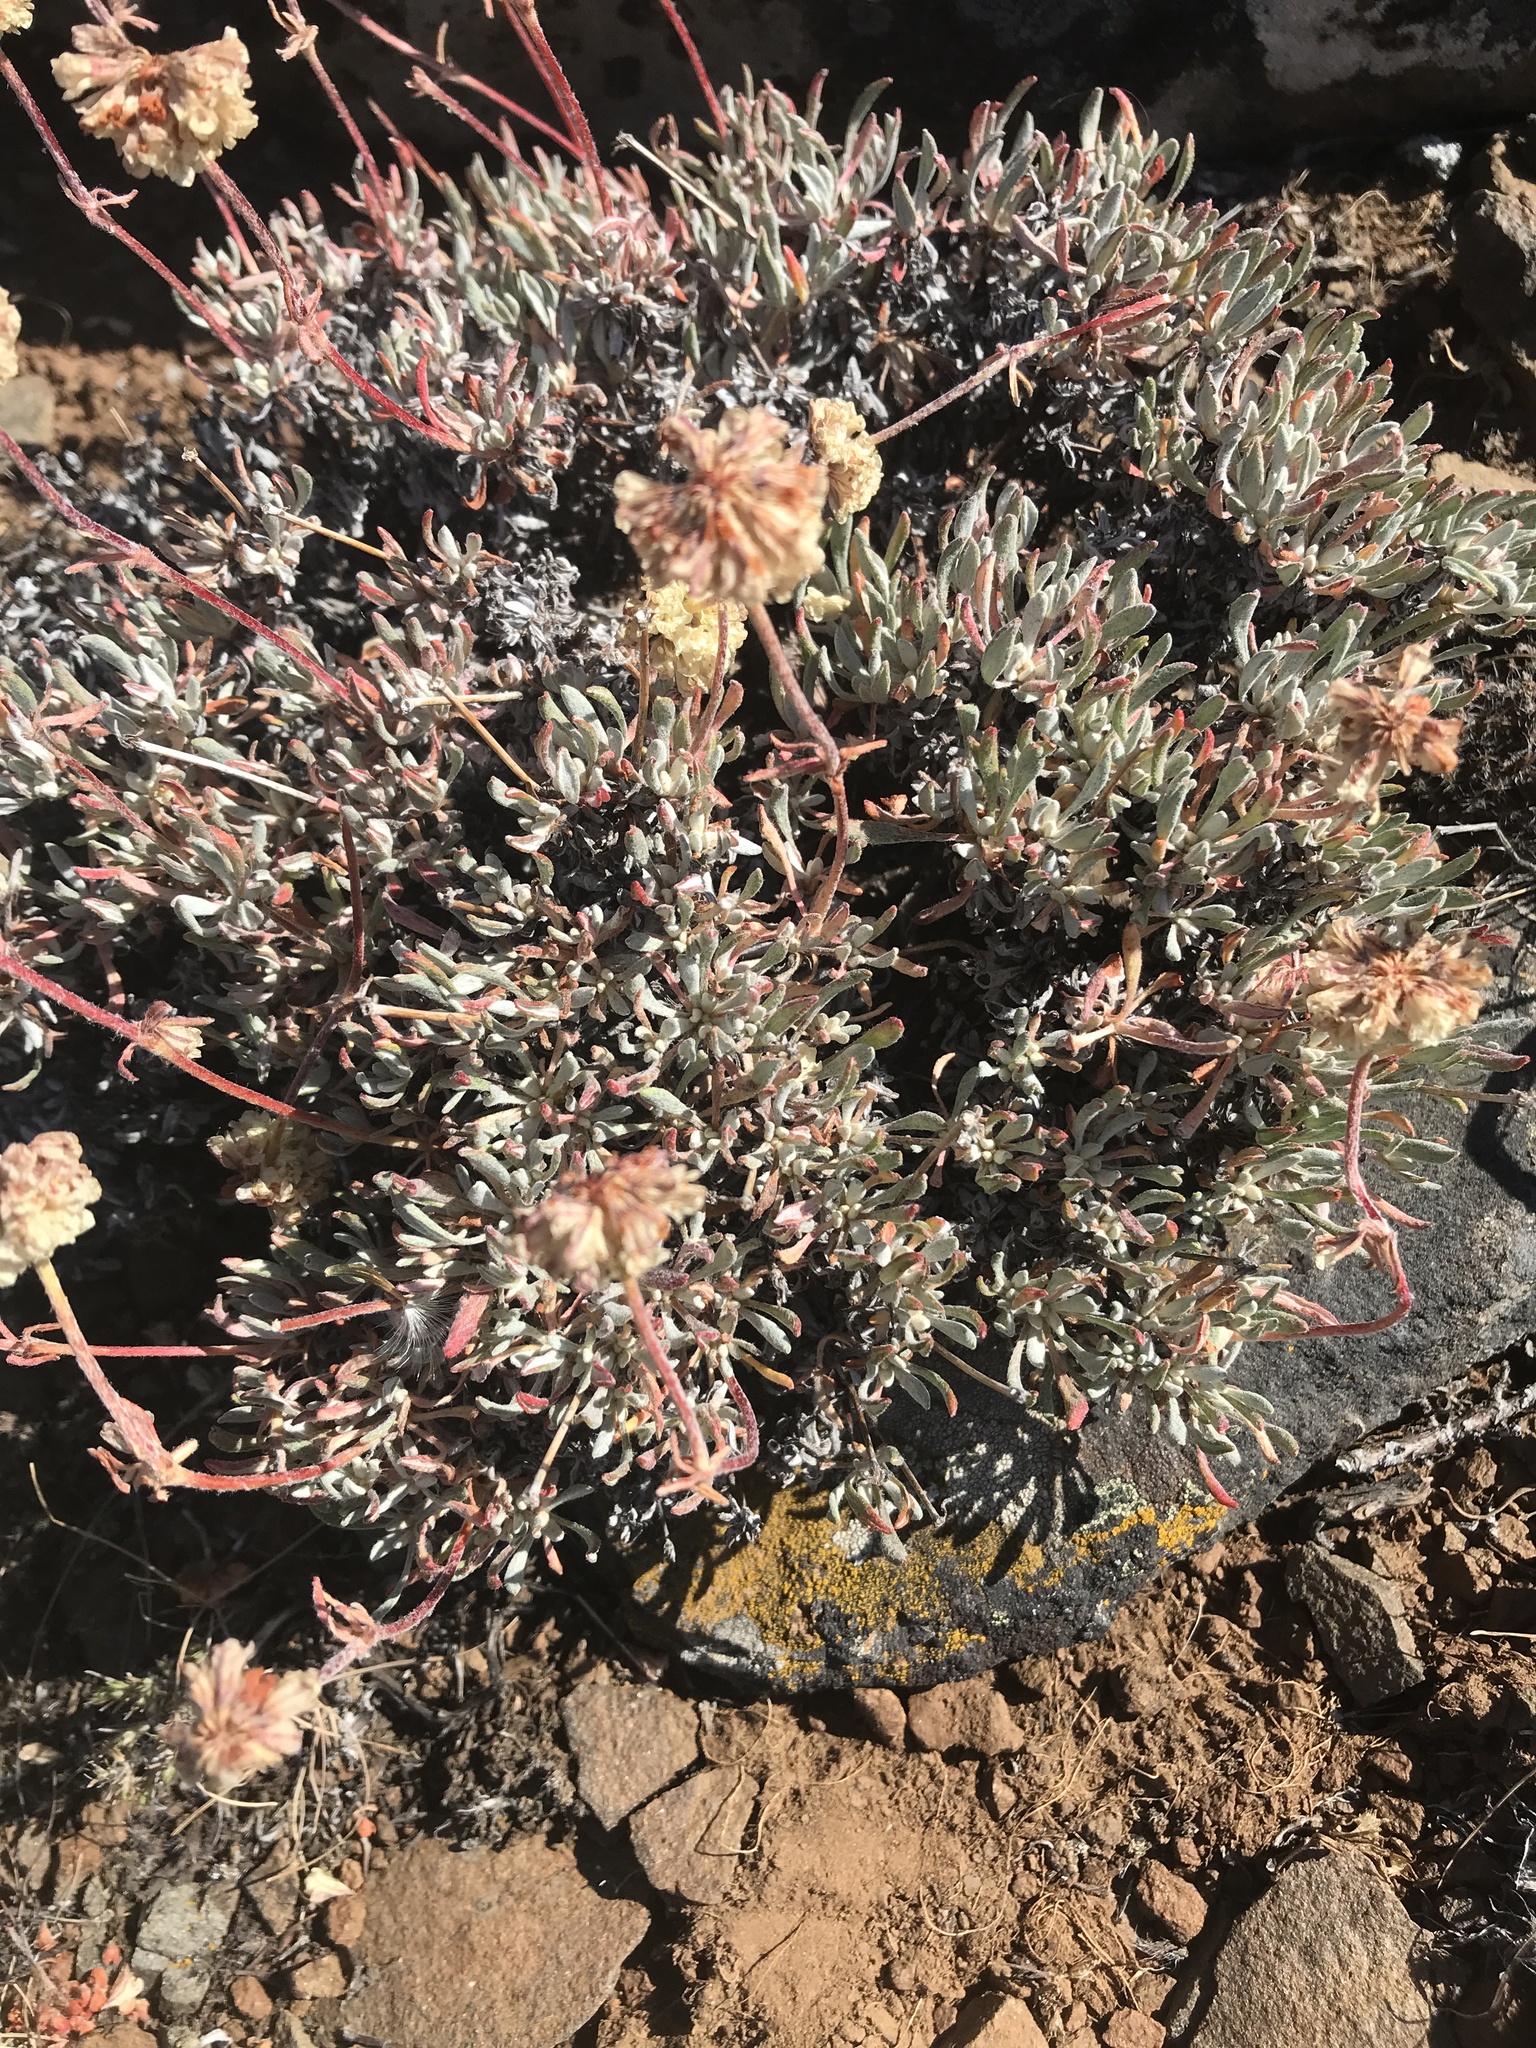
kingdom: Plantae
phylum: Tracheophyta
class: Magnoliopsida
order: Caryophyllales
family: Polygonaceae
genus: Eriogonum
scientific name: Eriogonum douglasii
